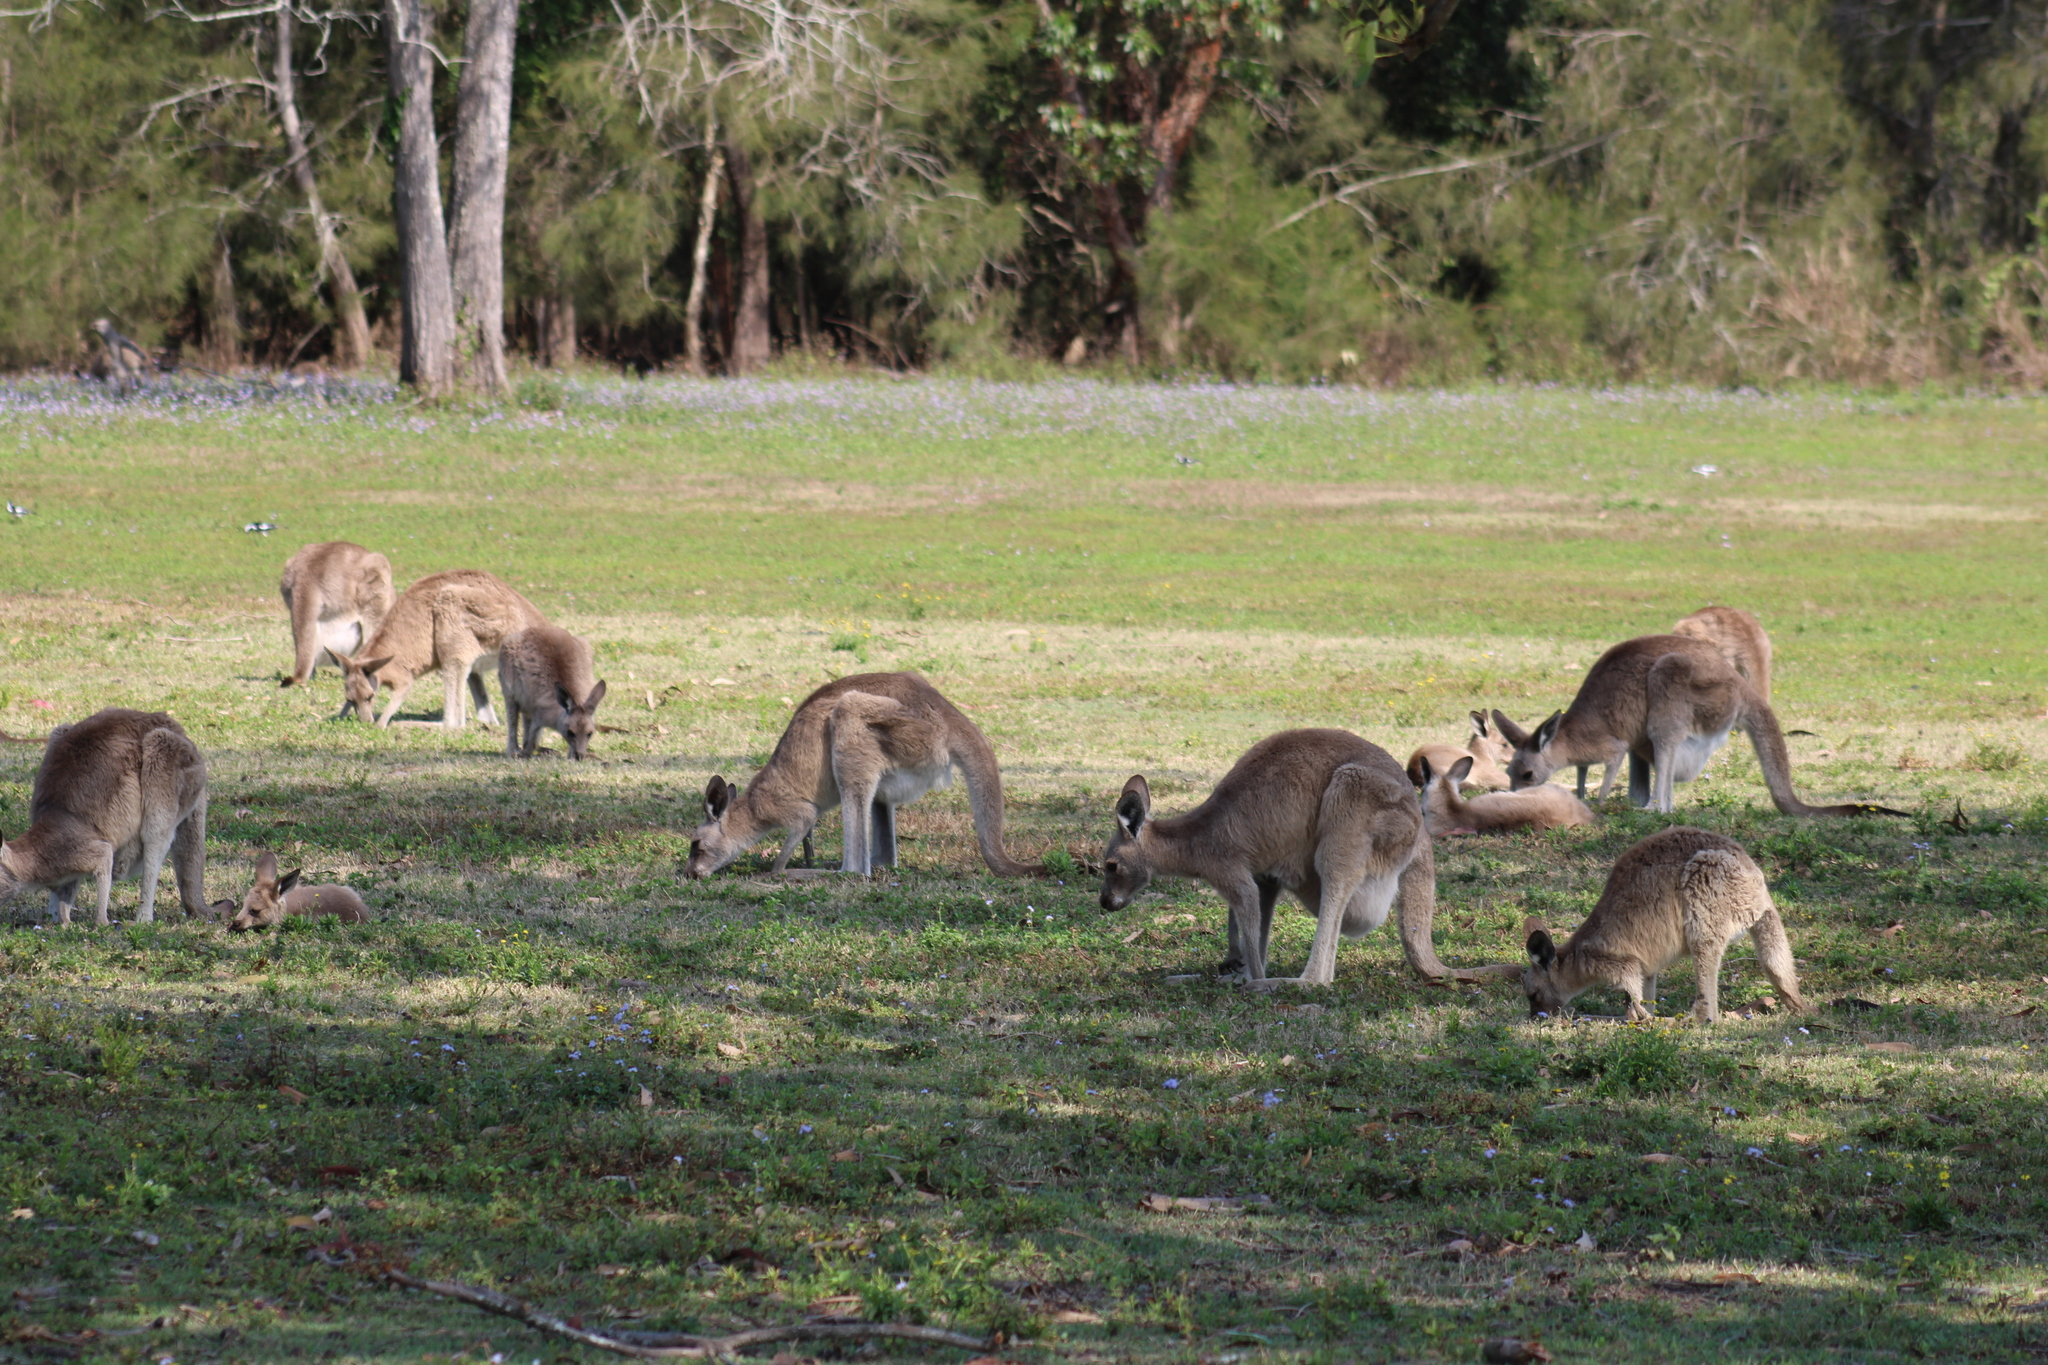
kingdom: Animalia
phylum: Chordata
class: Mammalia
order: Diprotodontia
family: Macropodidae
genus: Macropus
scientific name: Macropus giganteus
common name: Eastern grey kangaroo
